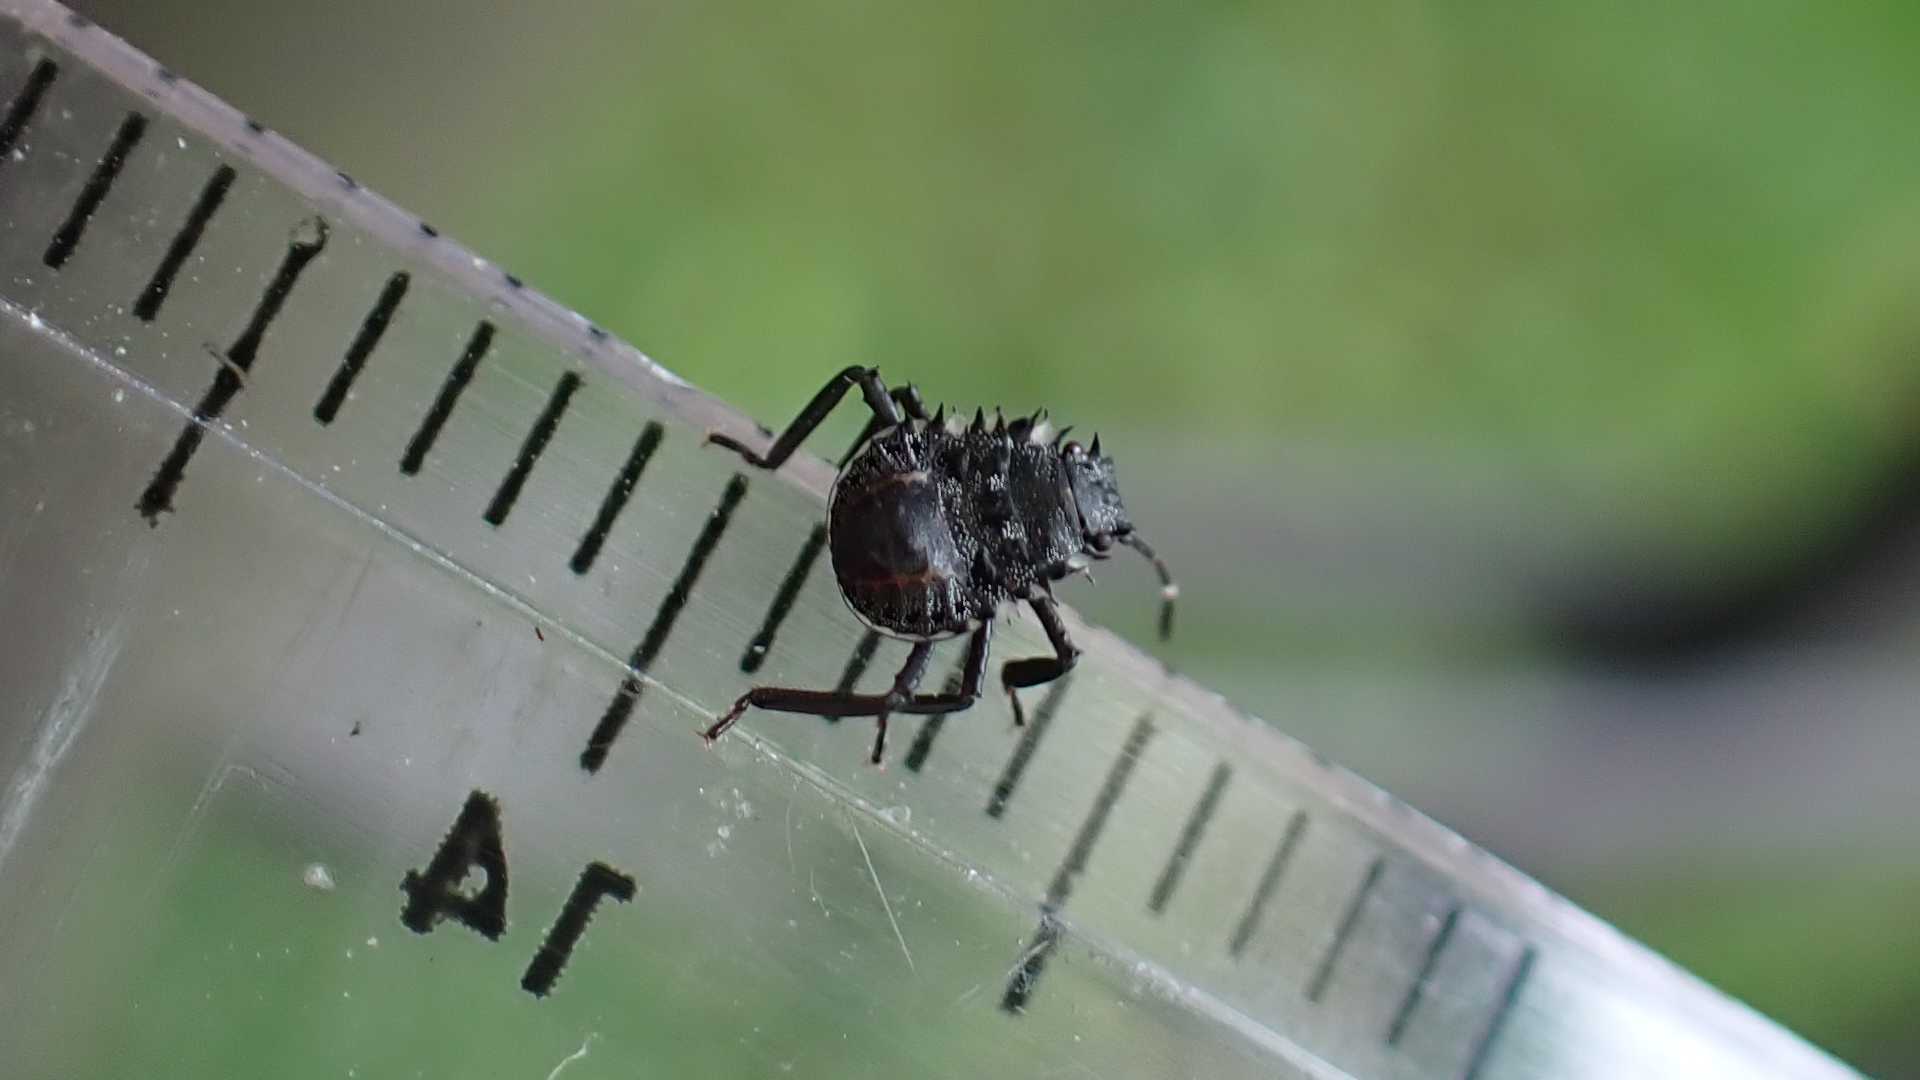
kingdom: Animalia
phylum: Arthropoda
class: Insecta
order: Hemiptera
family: Pentatomidae
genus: Halyomorpha
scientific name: Halyomorpha halys
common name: Brown marmorated stink bug
